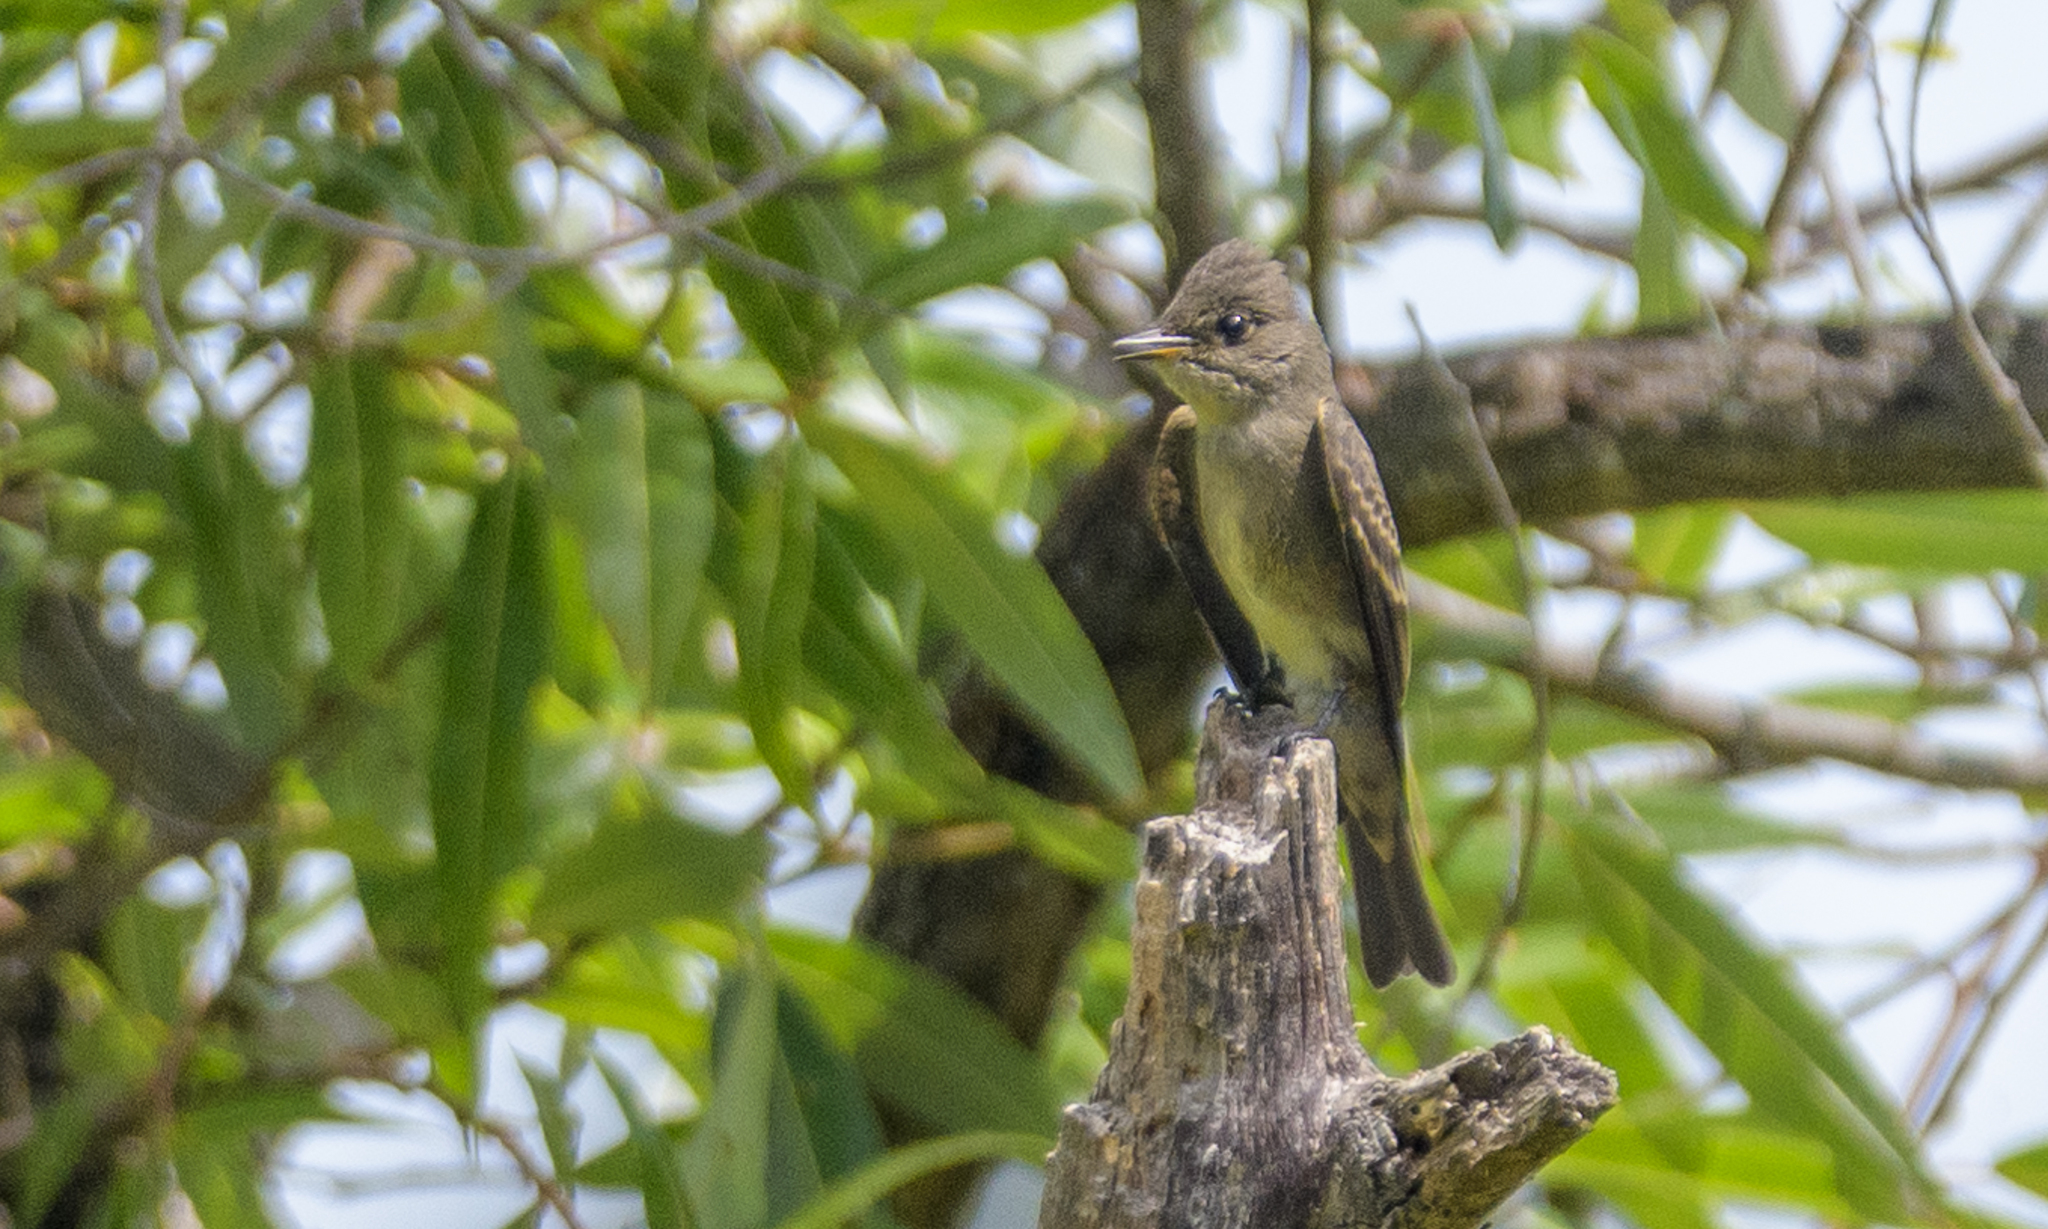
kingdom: Animalia
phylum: Chordata
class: Aves
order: Passeriformes
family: Tyrannidae
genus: Contopus
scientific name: Contopus sordidulus
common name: Western wood-pewee
